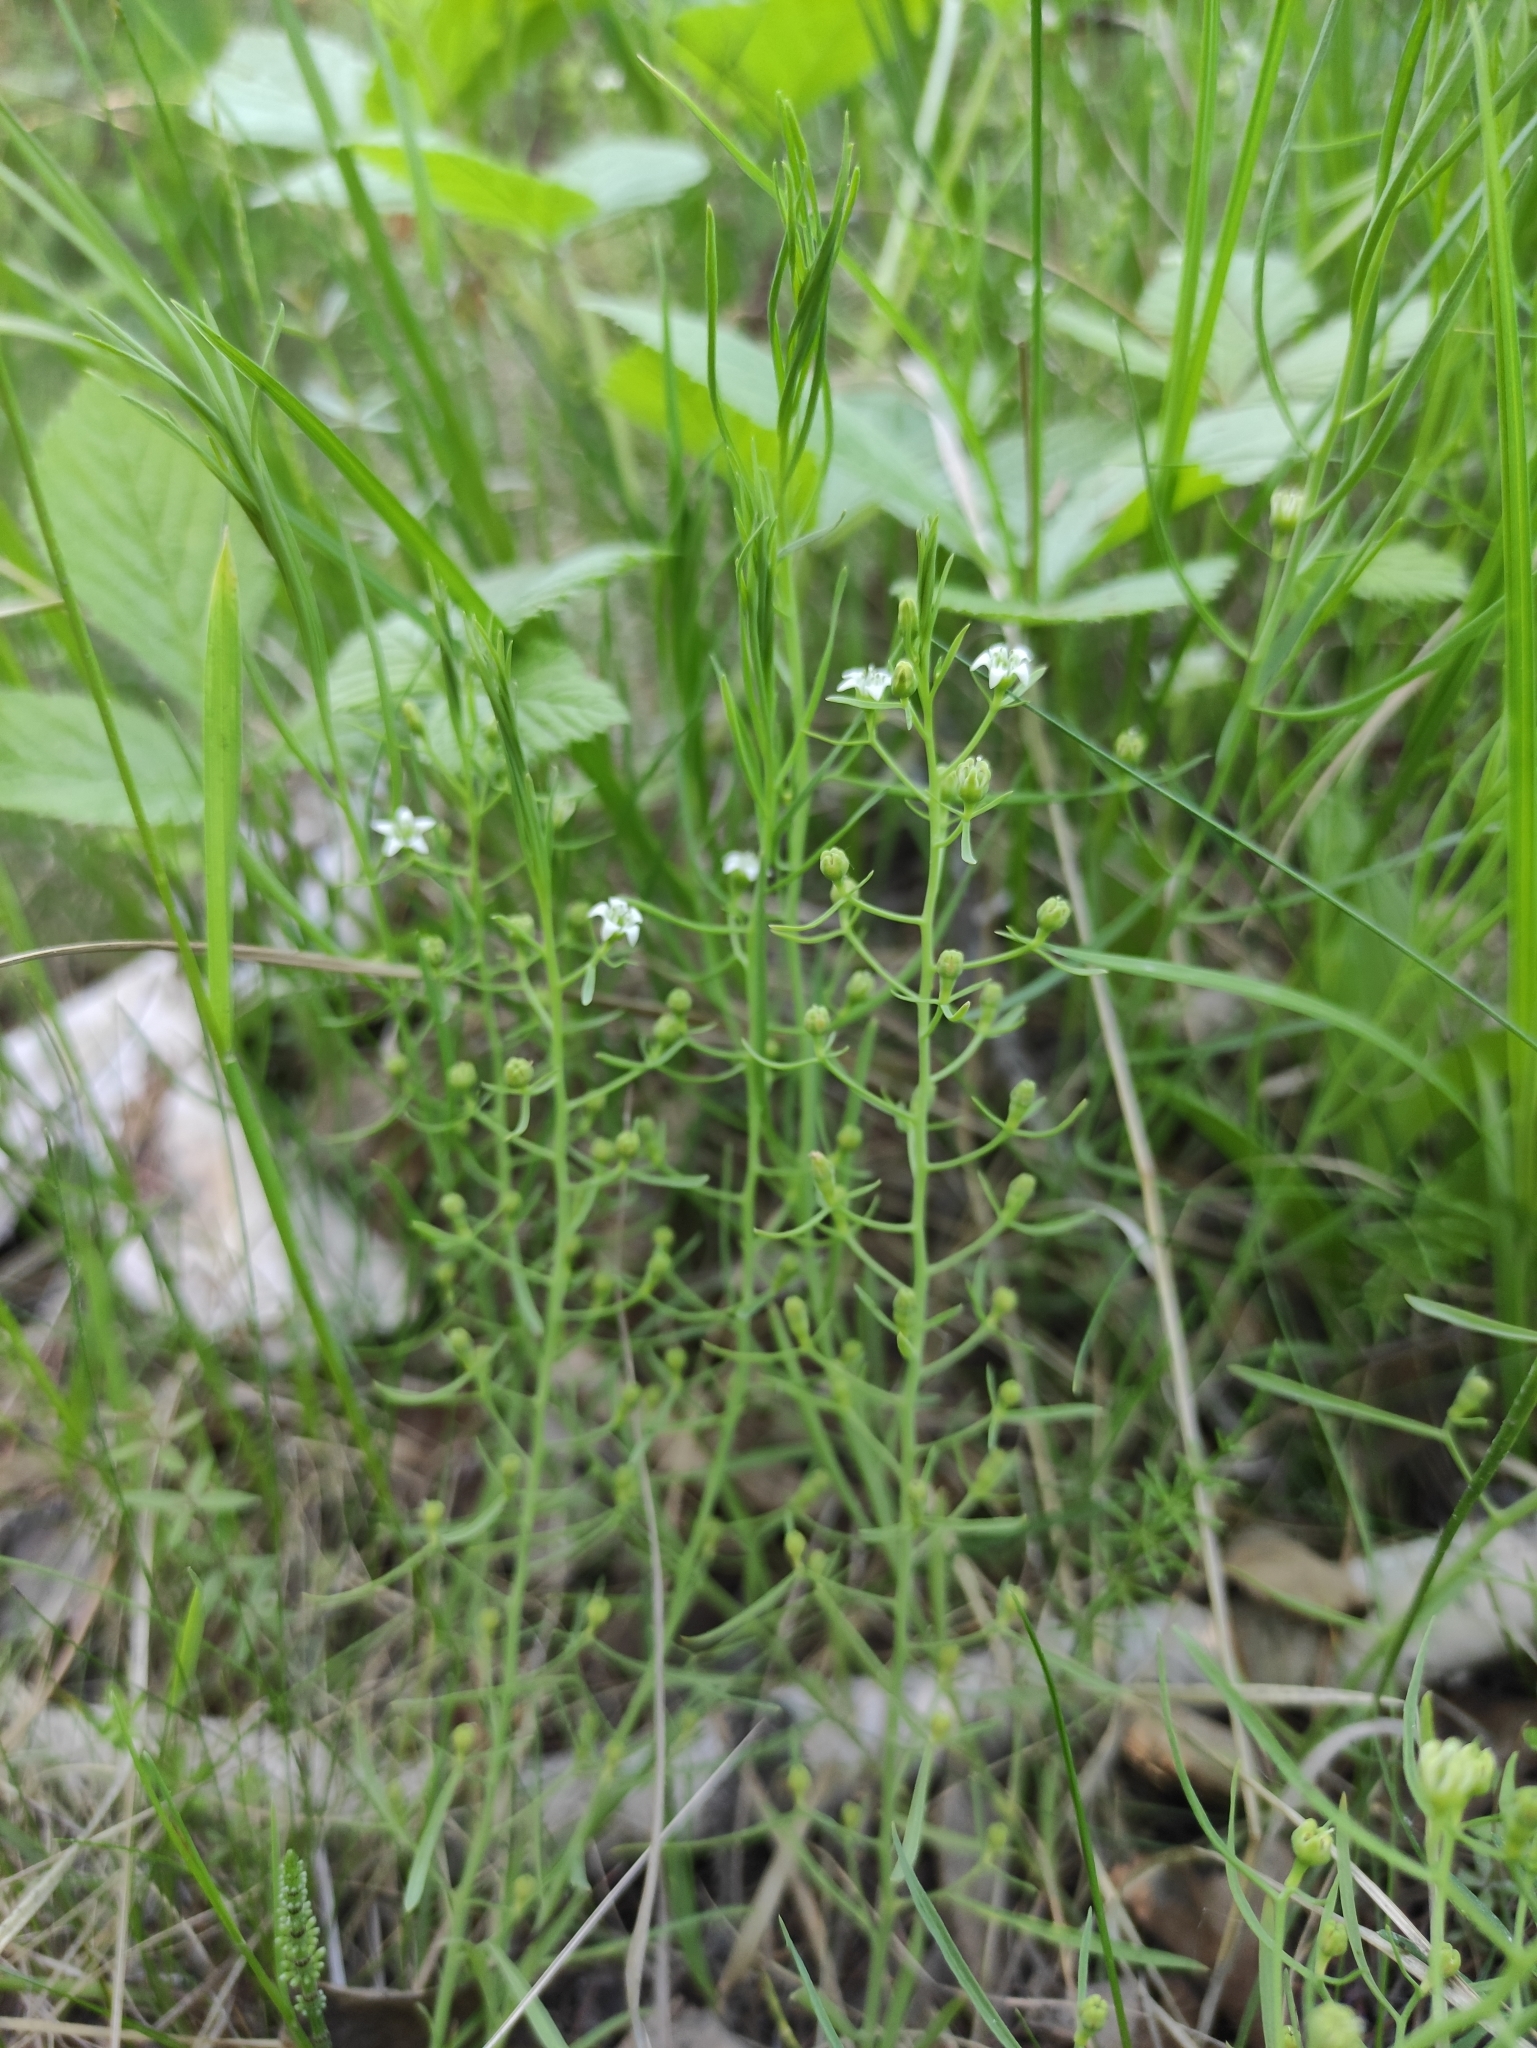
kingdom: Plantae
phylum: Tracheophyta
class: Magnoliopsida
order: Santalales
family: Thesiaceae
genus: Thesium
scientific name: Thesium repens
